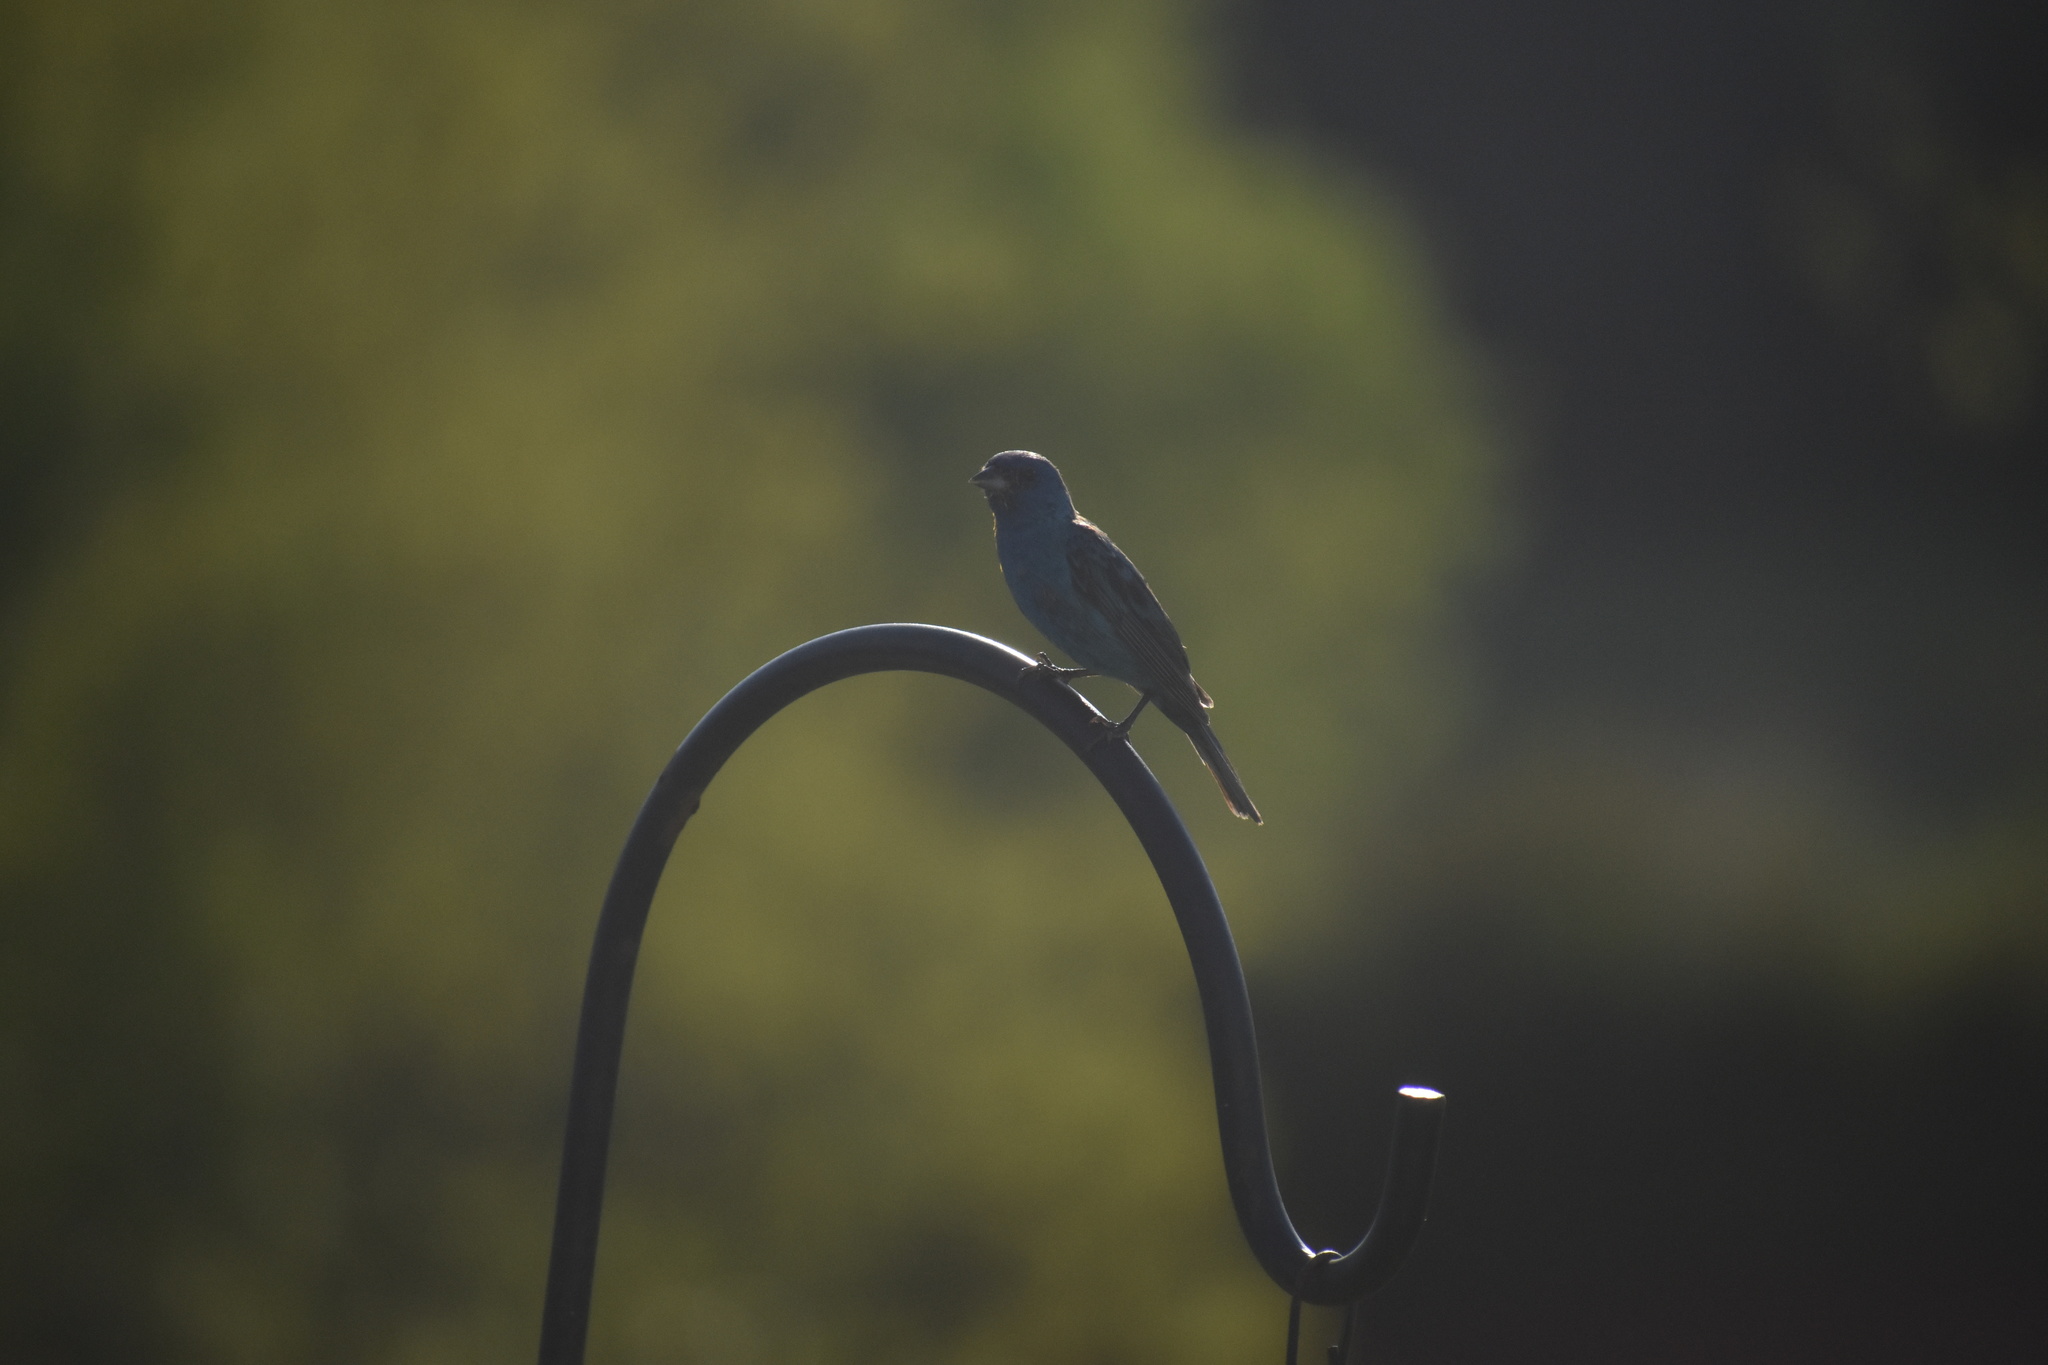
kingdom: Animalia
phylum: Chordata
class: Aves
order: Passeriformes
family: Cardinalidae
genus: Passerina
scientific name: Passerina cyanea
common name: Indigo bunting
